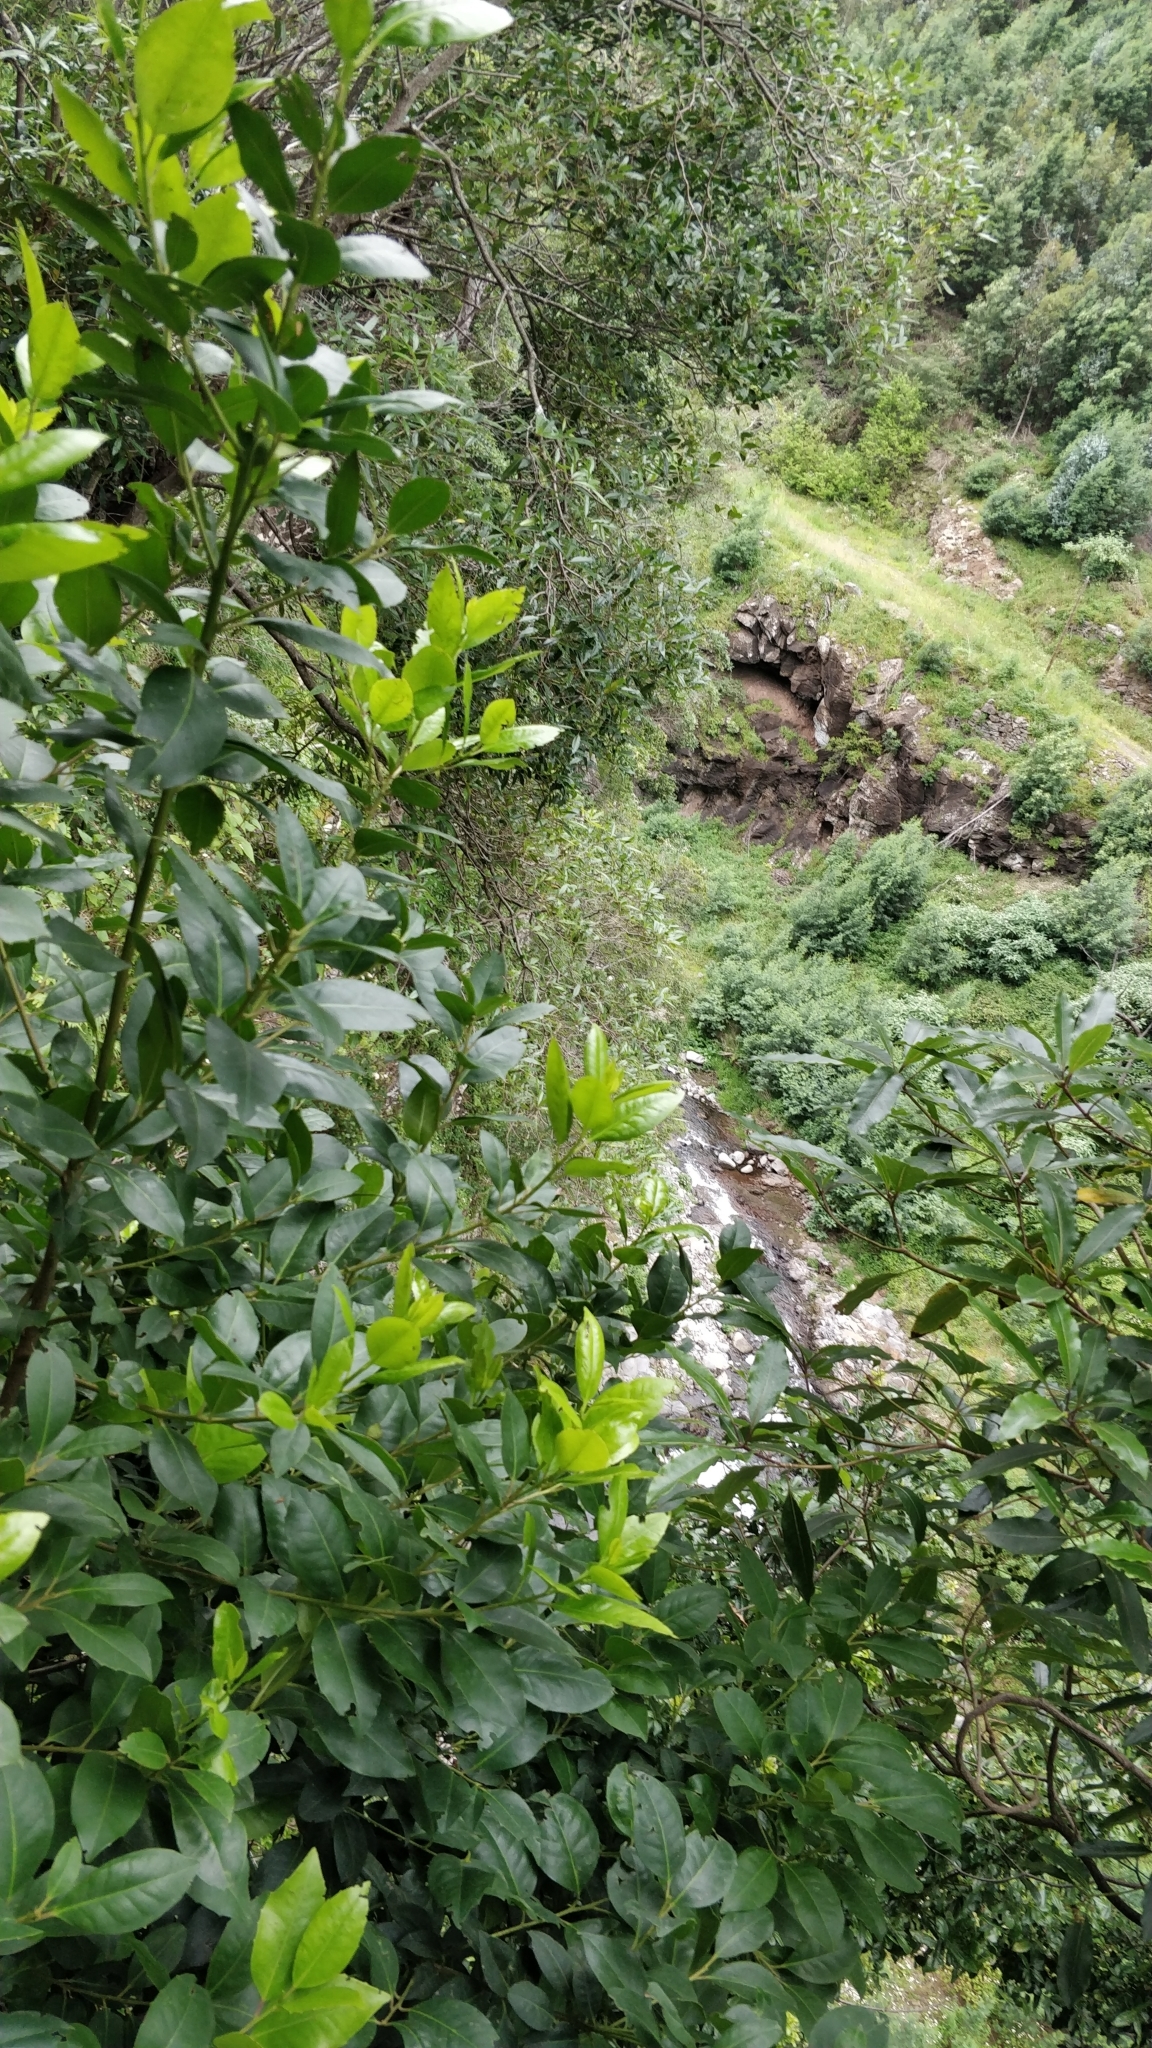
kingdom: Plantae
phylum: Tracheophyta
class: Magnoliopsida
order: Aquifoliales
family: Aquifoliaceae
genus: Ilex
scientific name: Ilex canariensis
